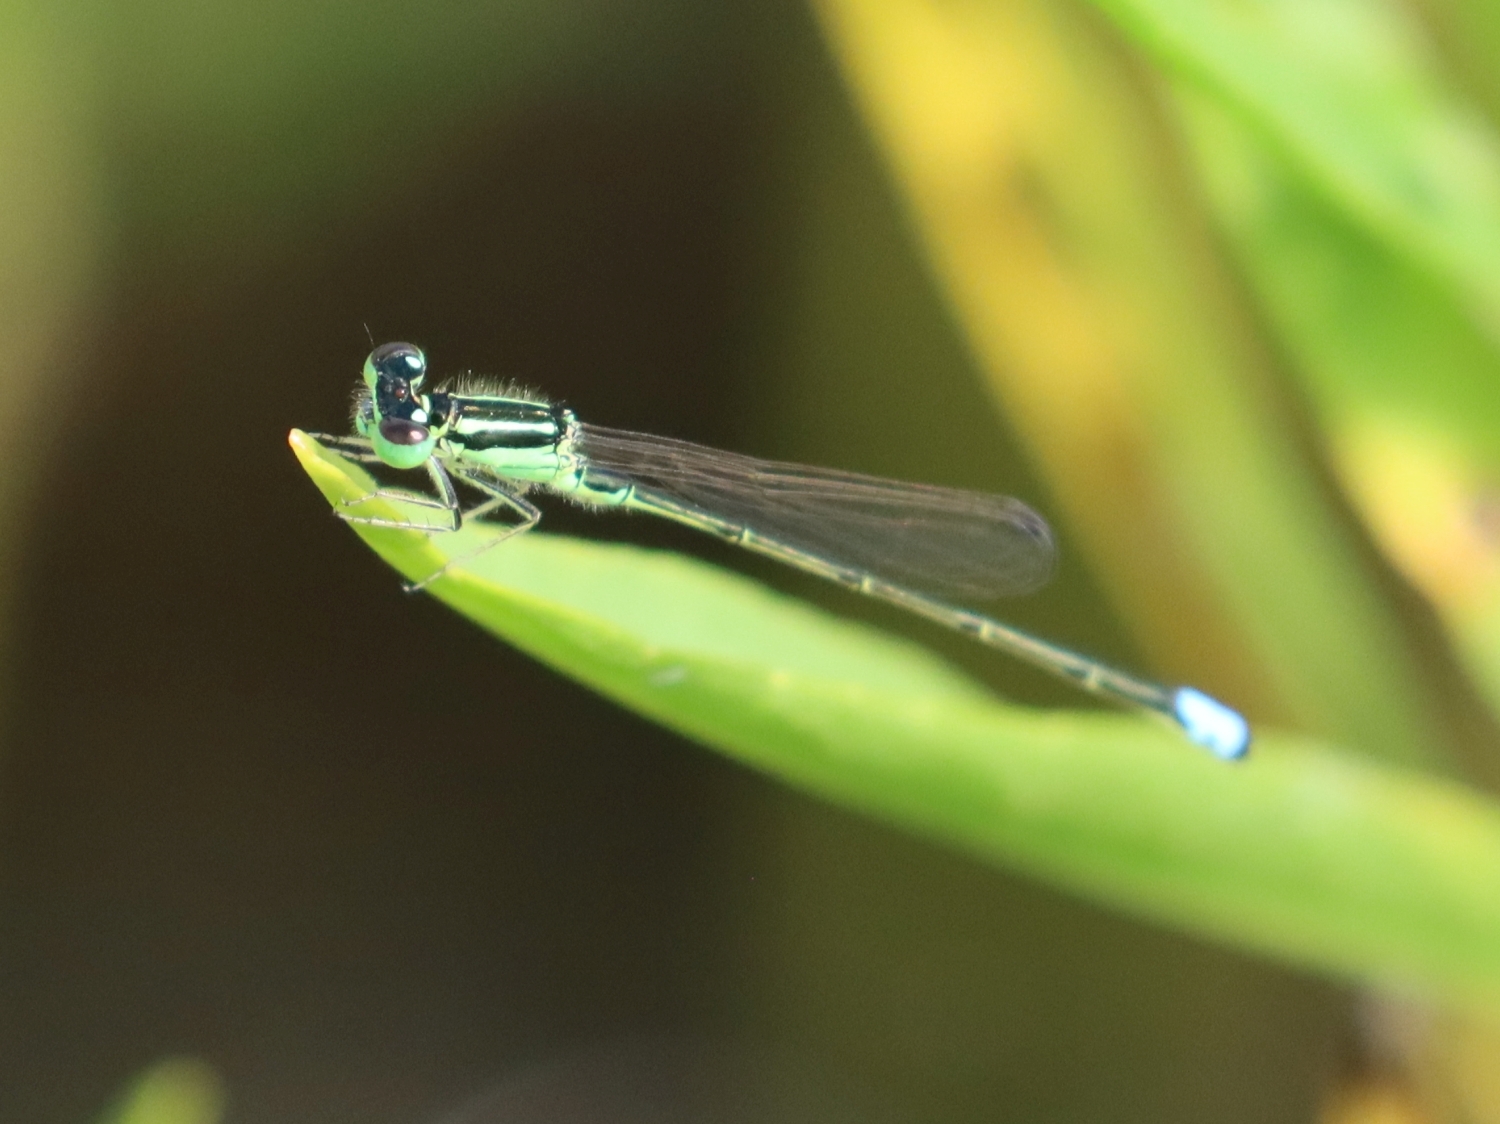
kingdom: Animalia
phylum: Arthropoda
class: Insecta
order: Odonata
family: Coenagrionidae
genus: Ischnura
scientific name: Ischnura verticalis
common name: Eastern forktail
